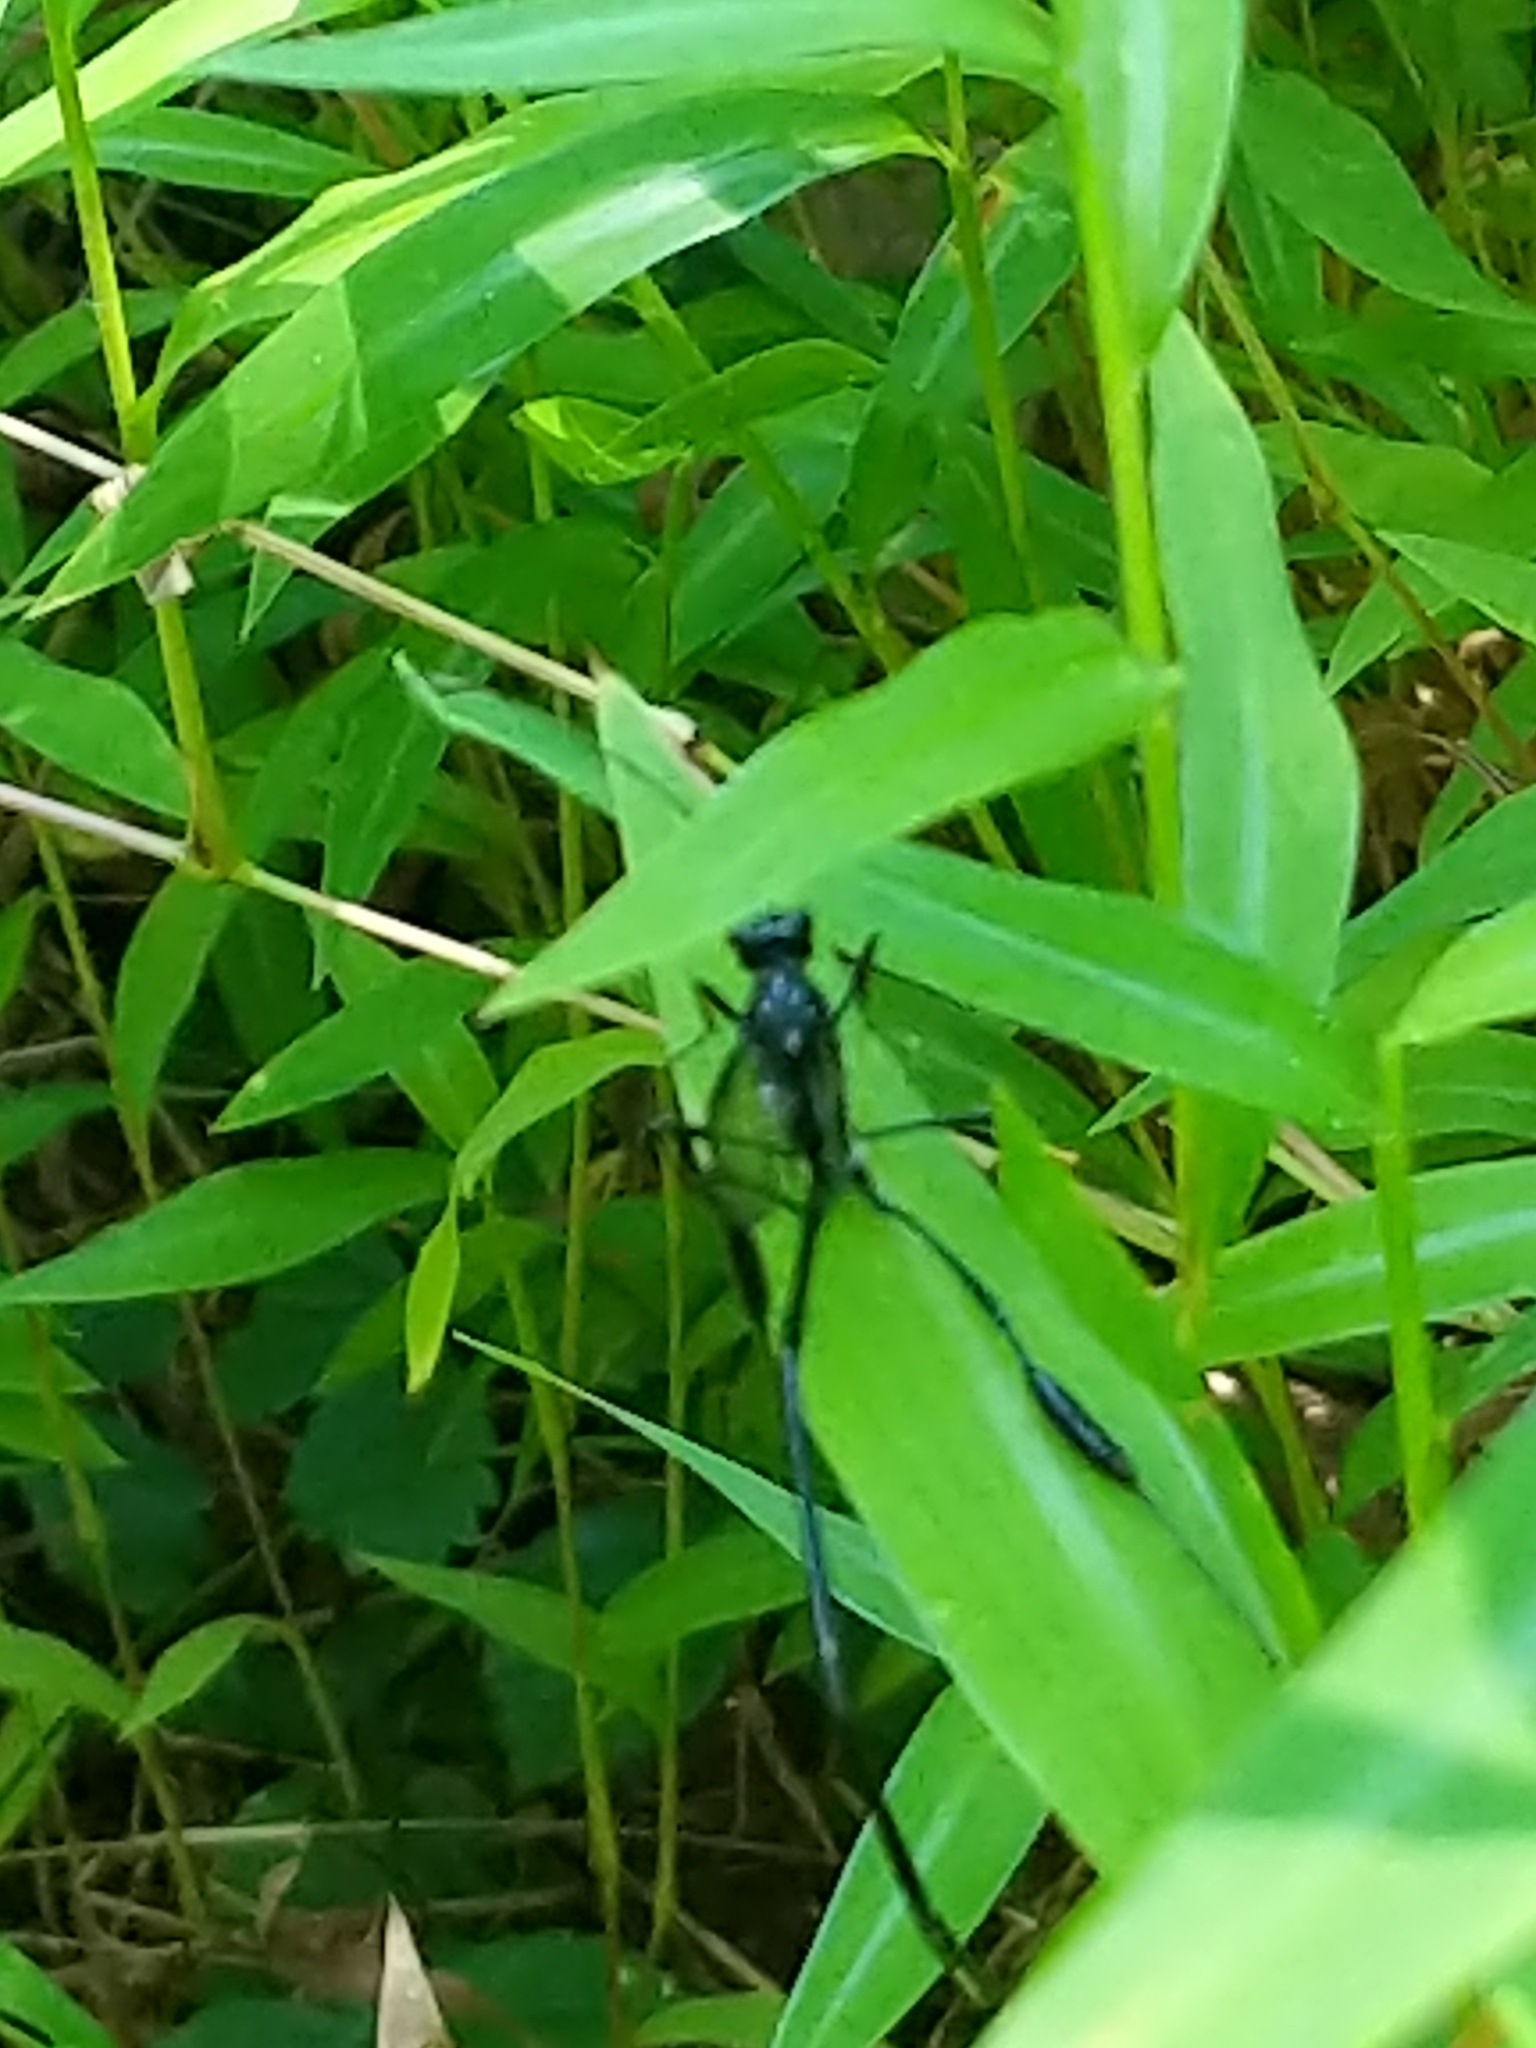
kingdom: Animalia
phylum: Arthropoda
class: Insecta
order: Hymenoptera
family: Pelecinidae
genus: Pelecinus
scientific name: Pelecinus polyturator
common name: American pelecinid wasp
